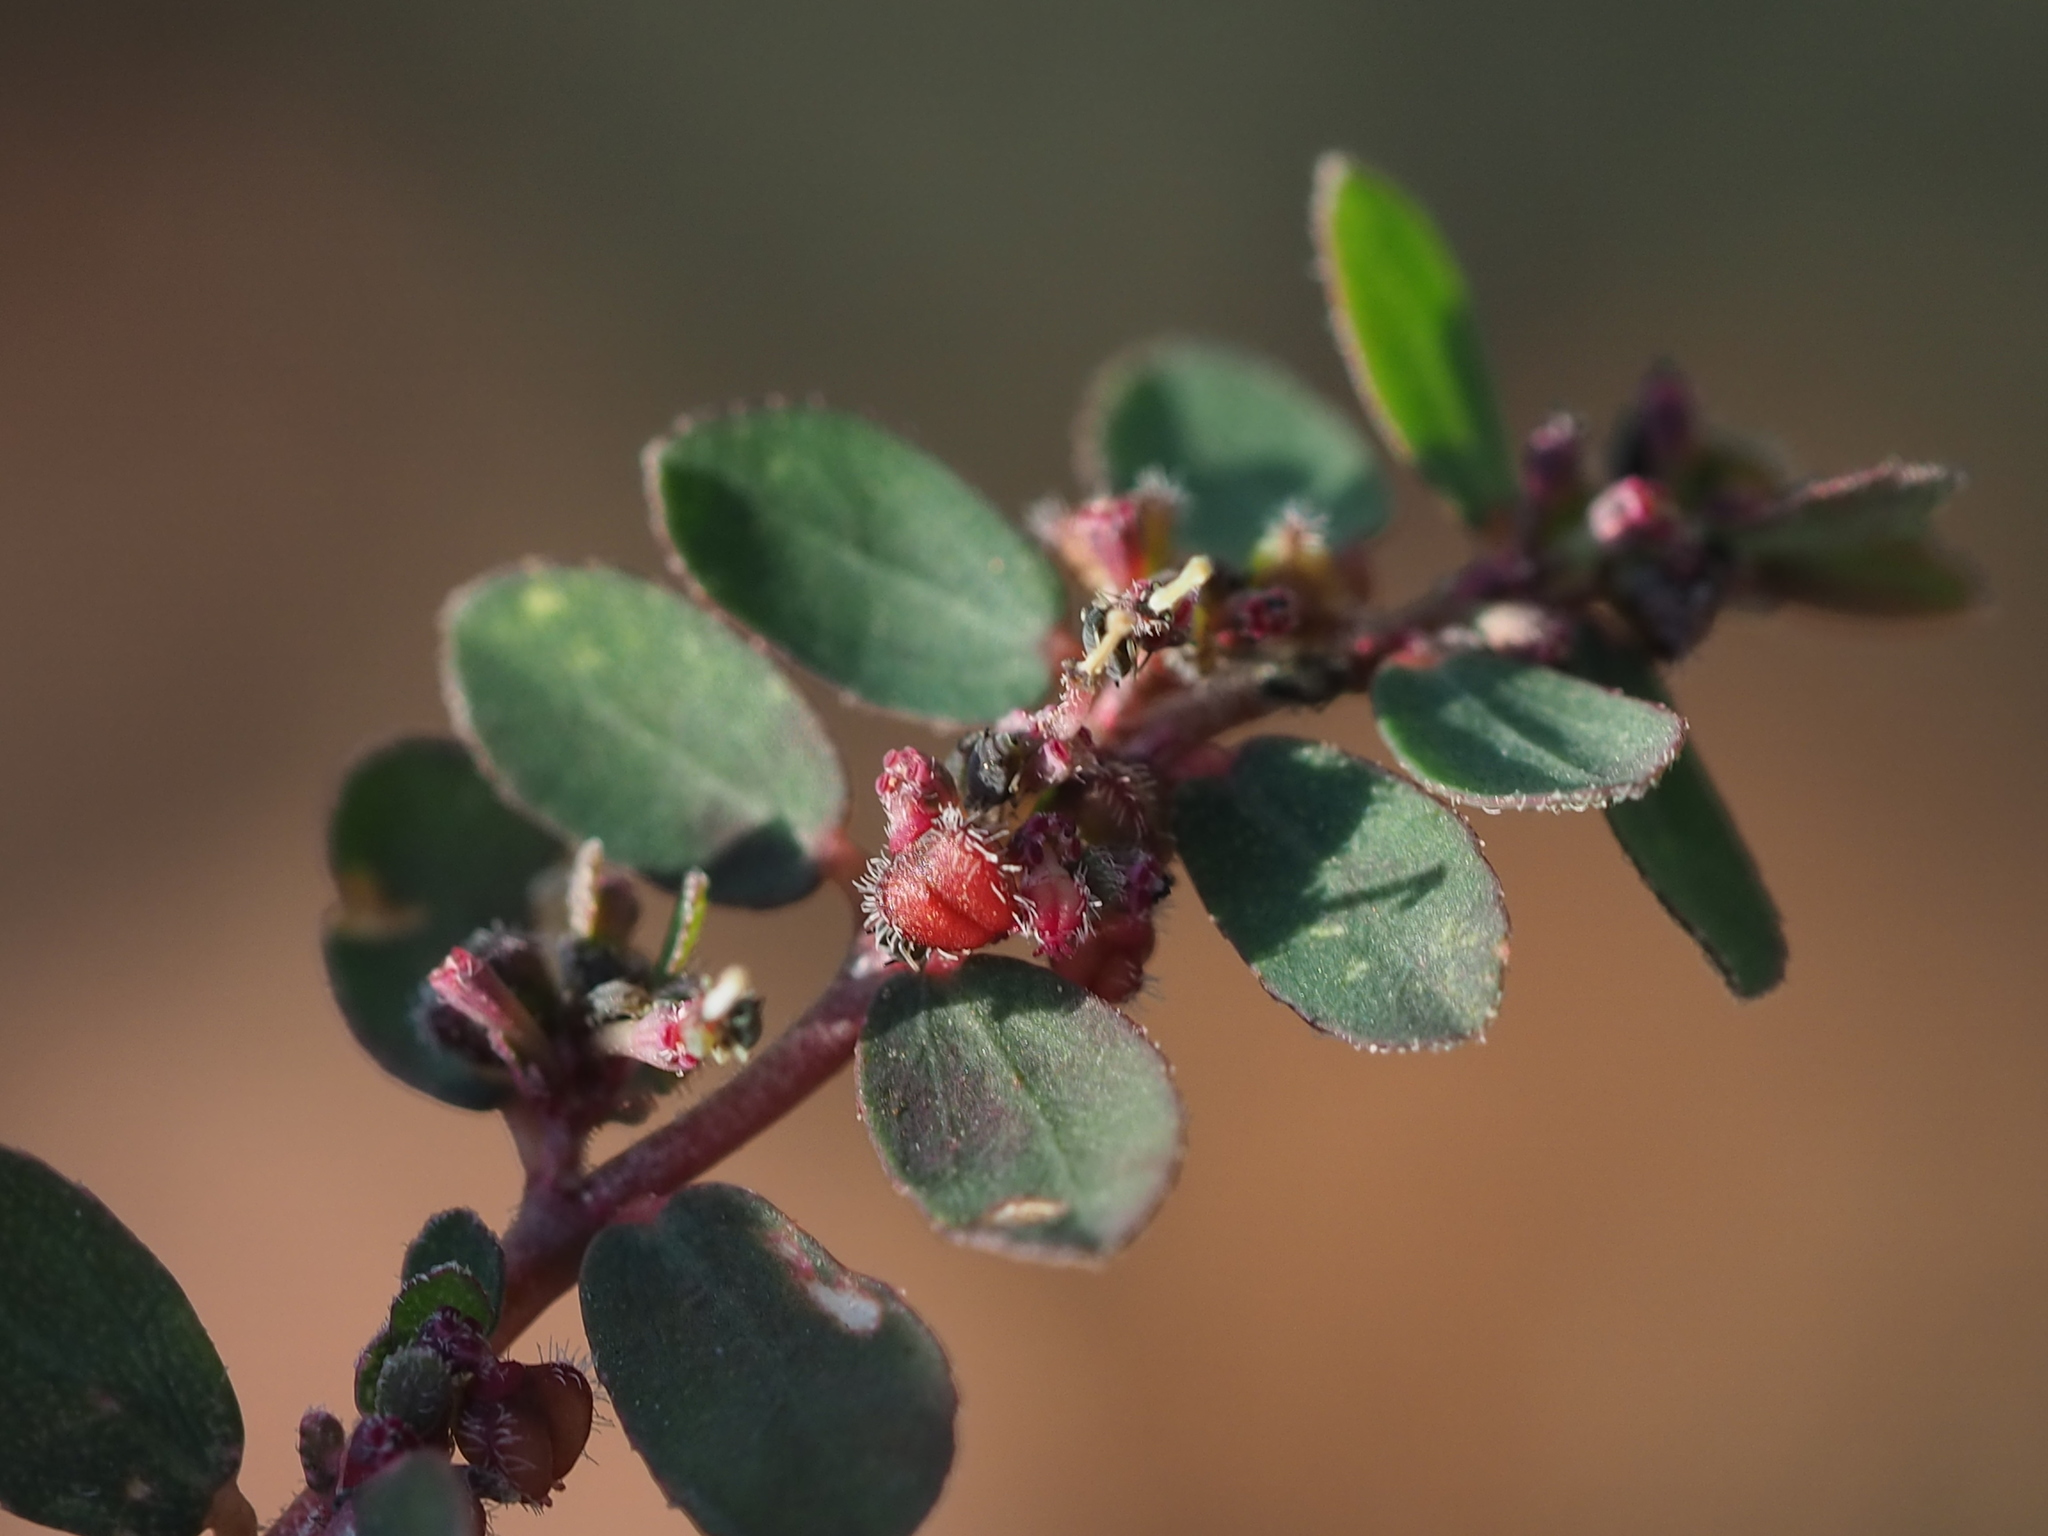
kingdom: Plantae
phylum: Tracheophyta
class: Magnoliopsida
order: Malpighiales
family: Euphorbiaceae
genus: Euphorbia
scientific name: Euphorbia prostrata
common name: Prostrate sandmat
